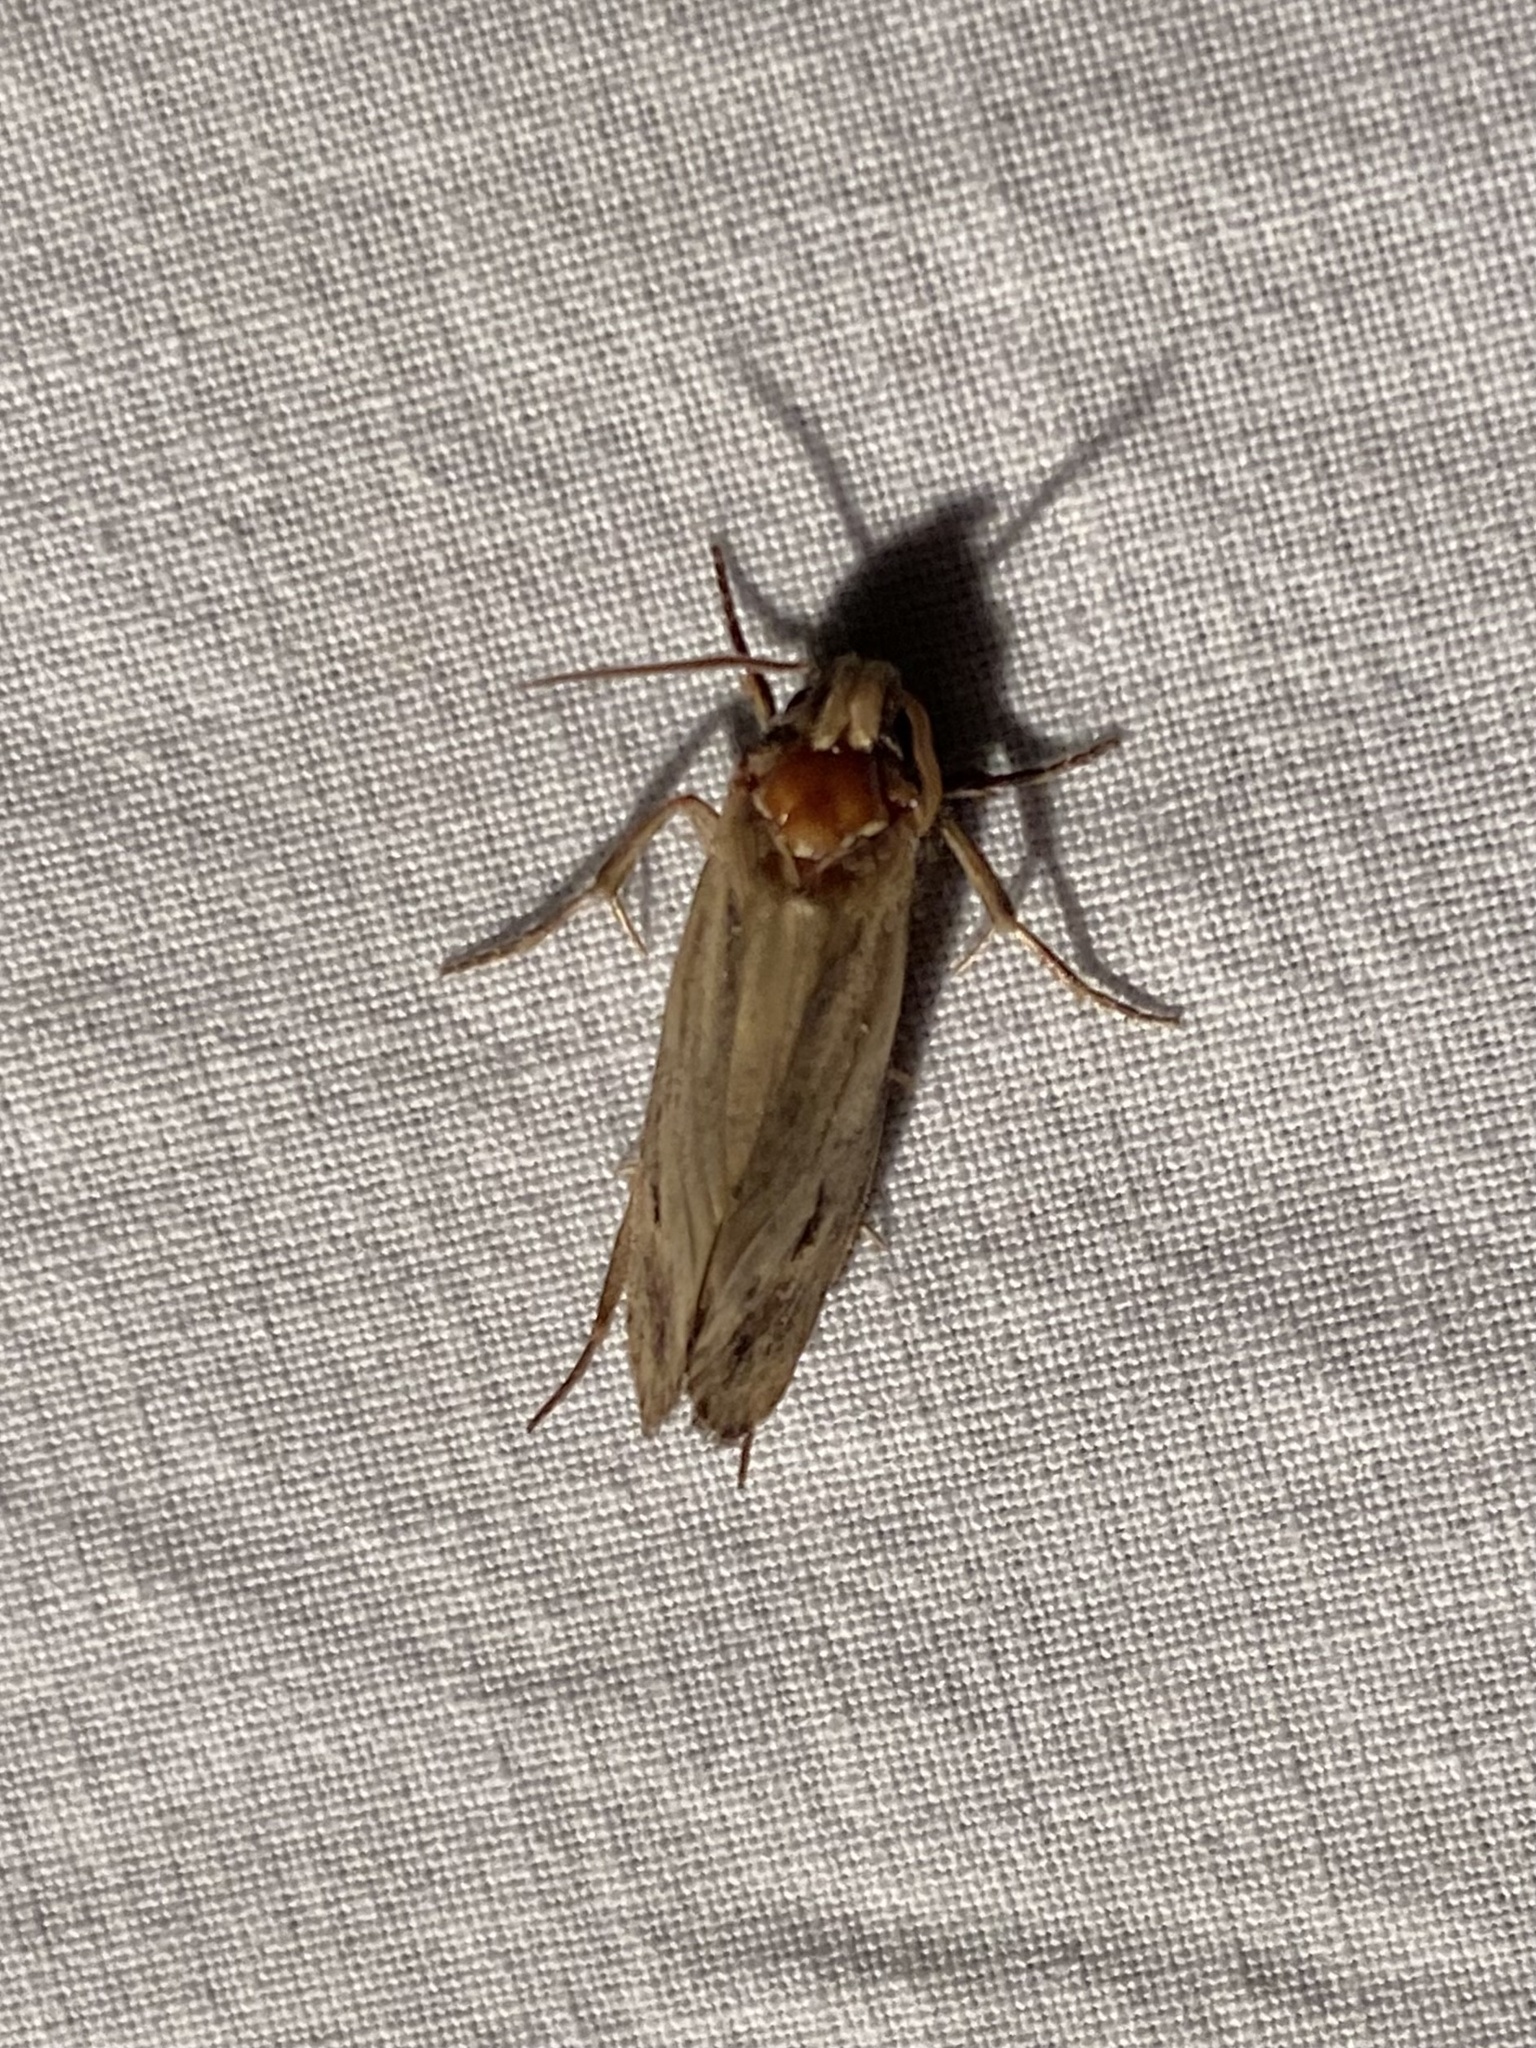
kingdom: Animalia
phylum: Arthropoda
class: Insecta
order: Lepidoptera
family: Tineidae
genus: Acrolophus
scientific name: Acrolophus popeanella
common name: Clemens' grass tubeworm moth
